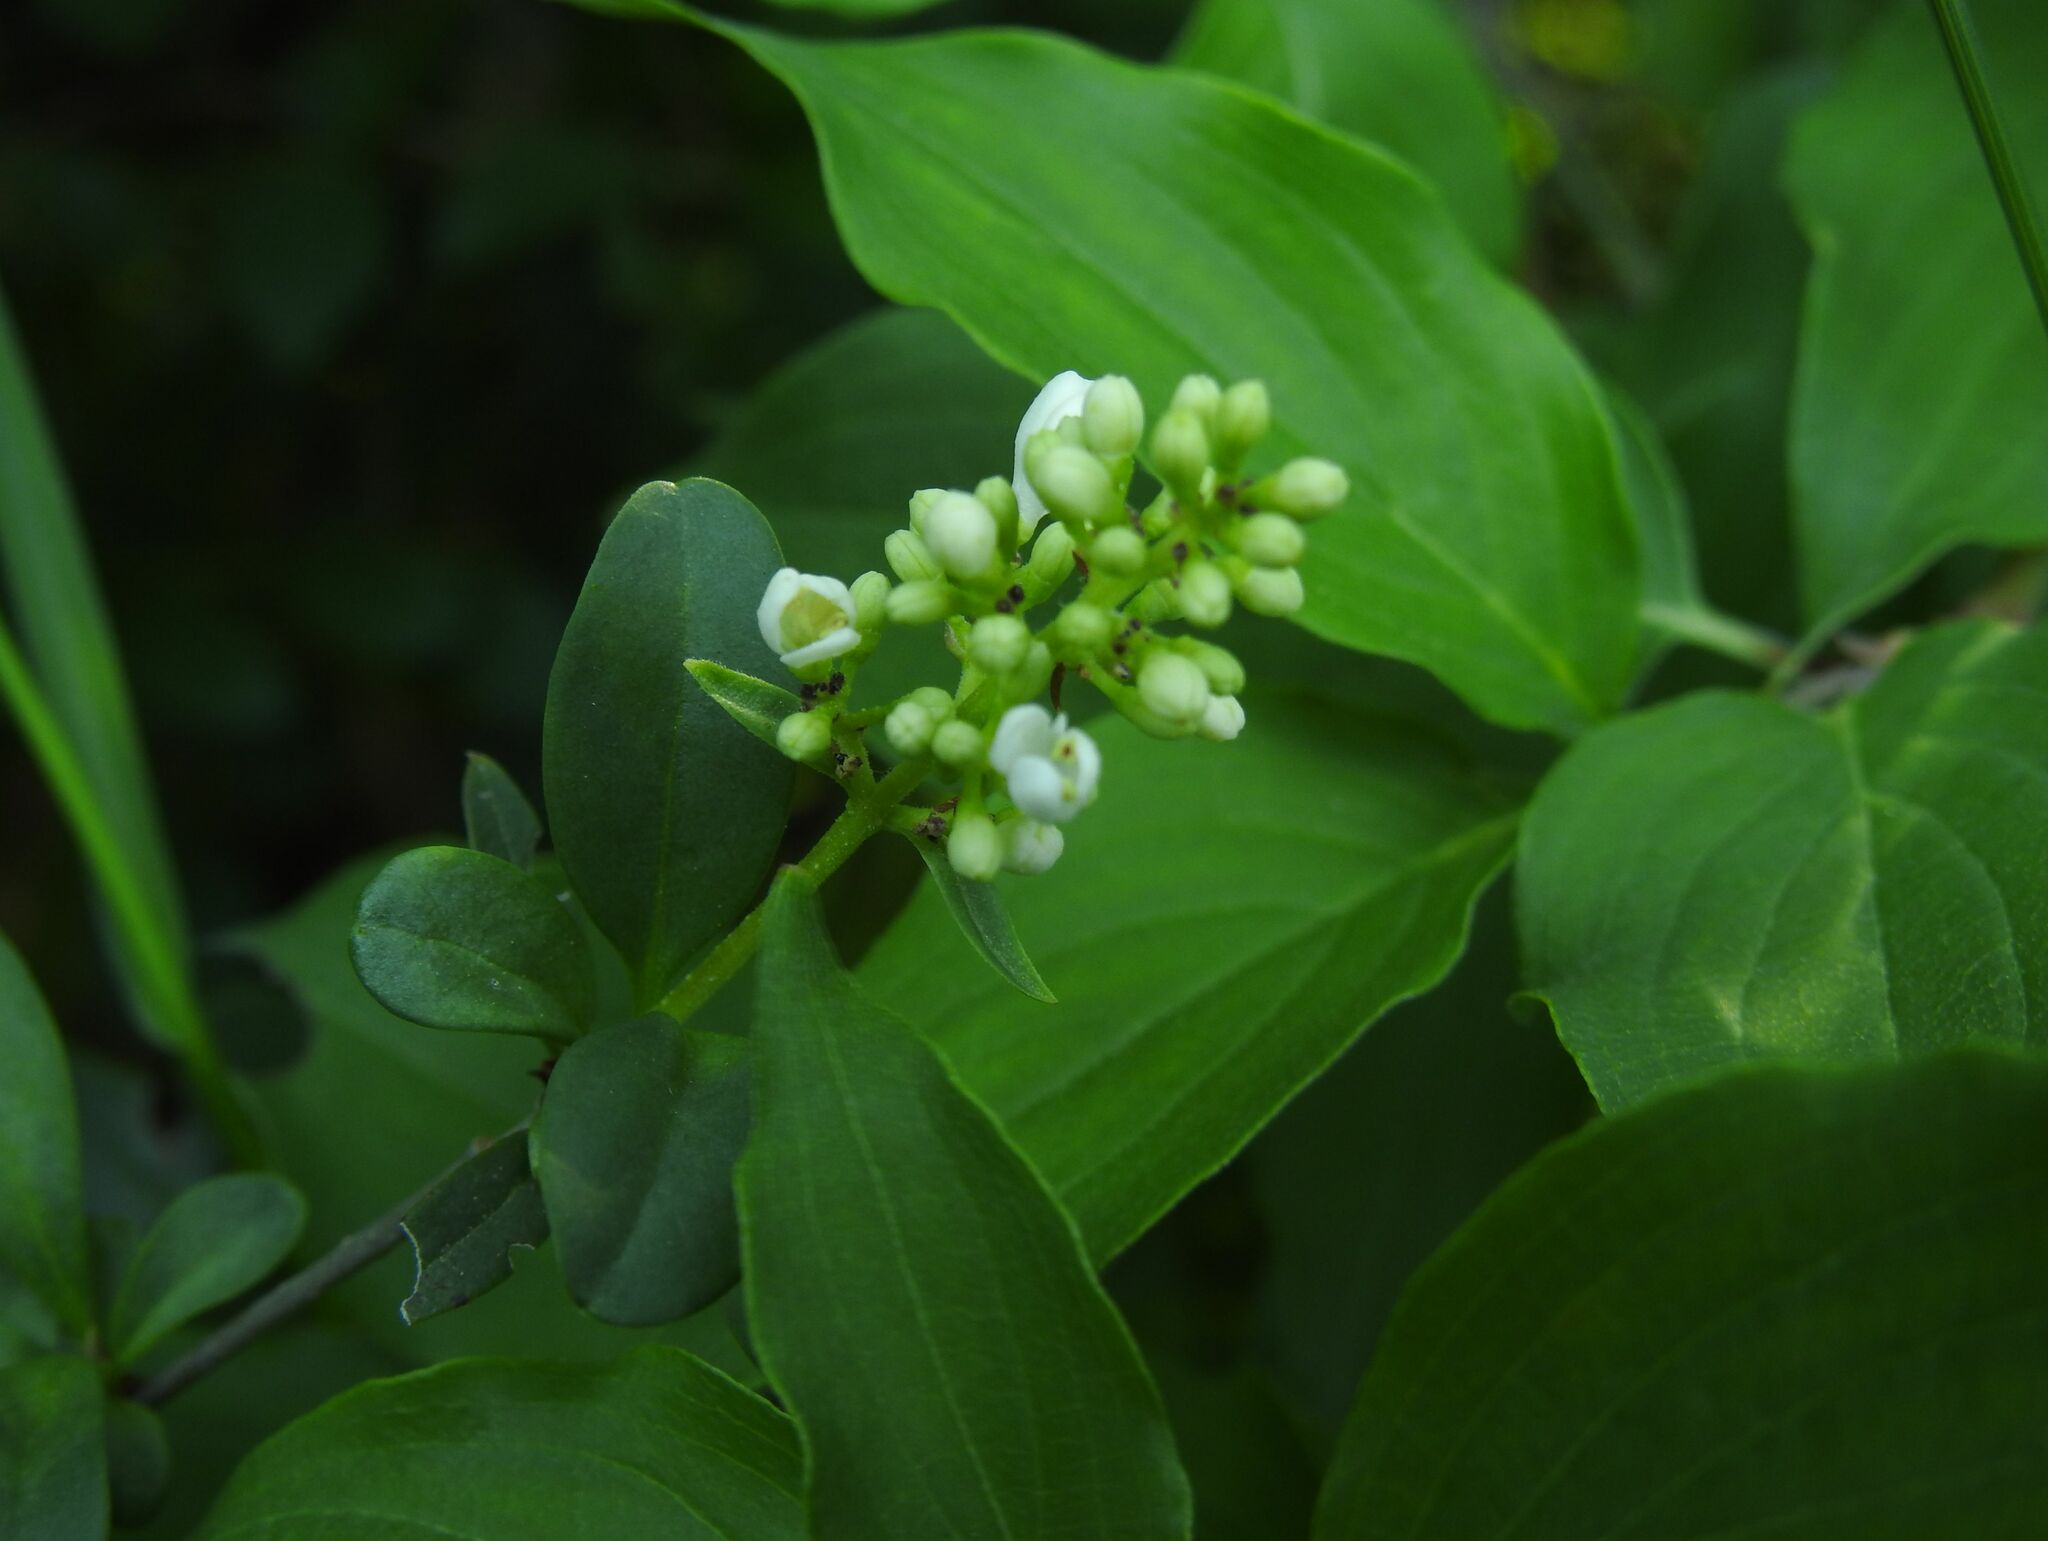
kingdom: Plantae
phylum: Tracheophyta
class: Magnoliopsida
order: Lamiales
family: Oleaceae
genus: Ligustrum
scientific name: Ligustrum vulgare
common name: Wild privet
